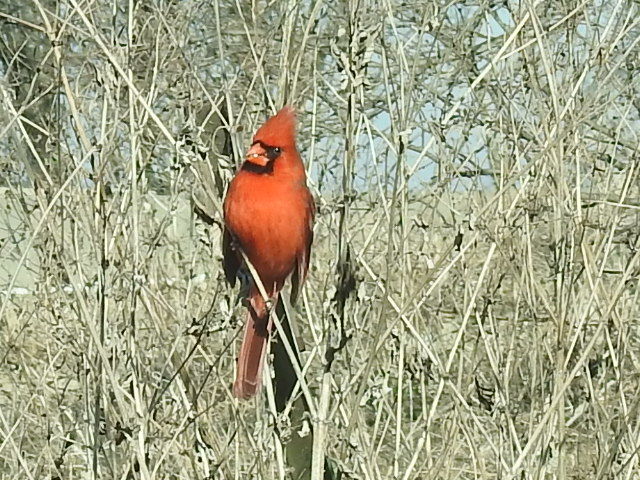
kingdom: Animalia
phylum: Chordata
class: Aves
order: Passeriformes
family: Cardinalidae
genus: Cardinalis
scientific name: Cardinalis cardinalis
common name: Northern cardinal
